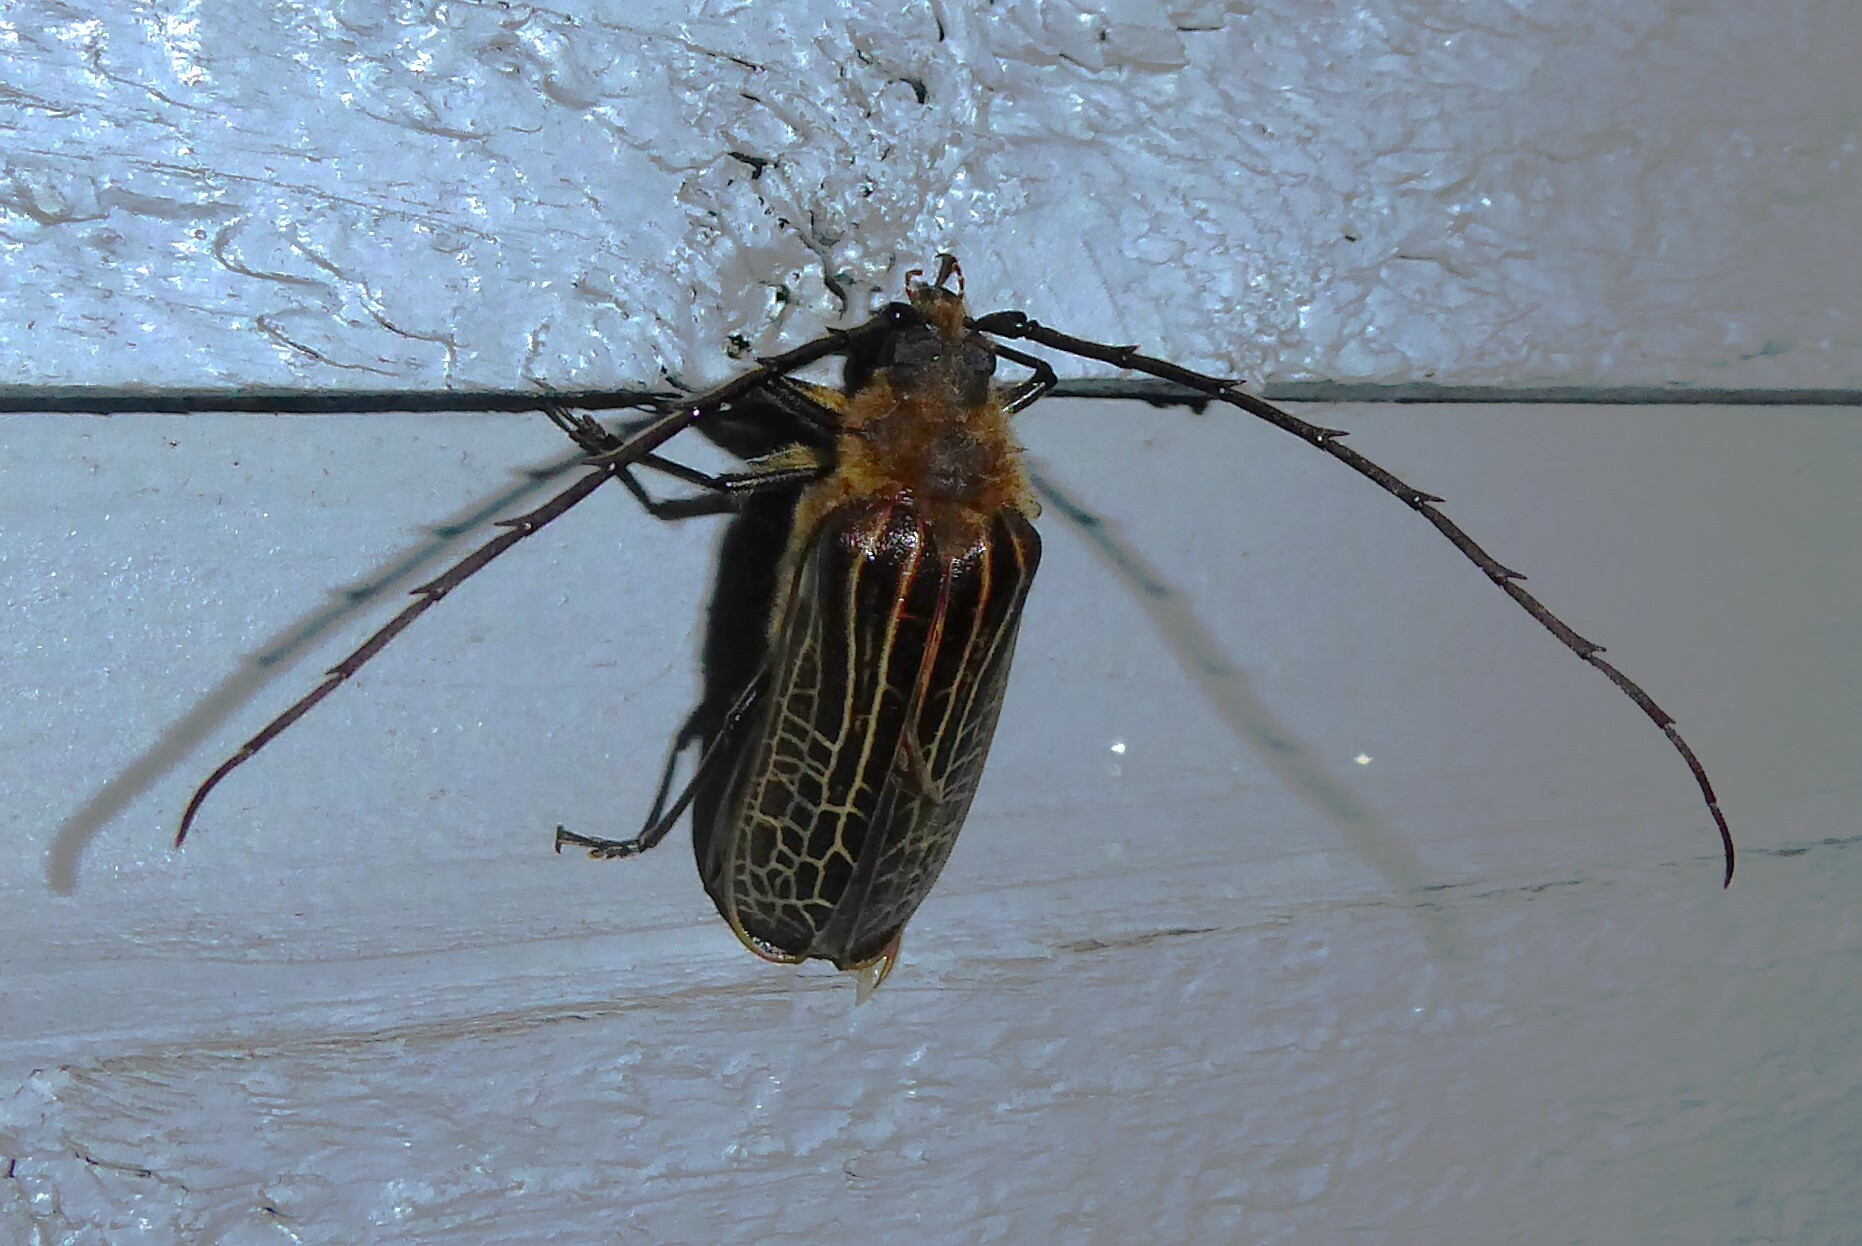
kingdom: Animalia
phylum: Arthropoda
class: Insecta
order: Coleoptera
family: Cerambycidae
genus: Prionoplus
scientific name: Prionoplus reticularis
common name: Huhu beetle
